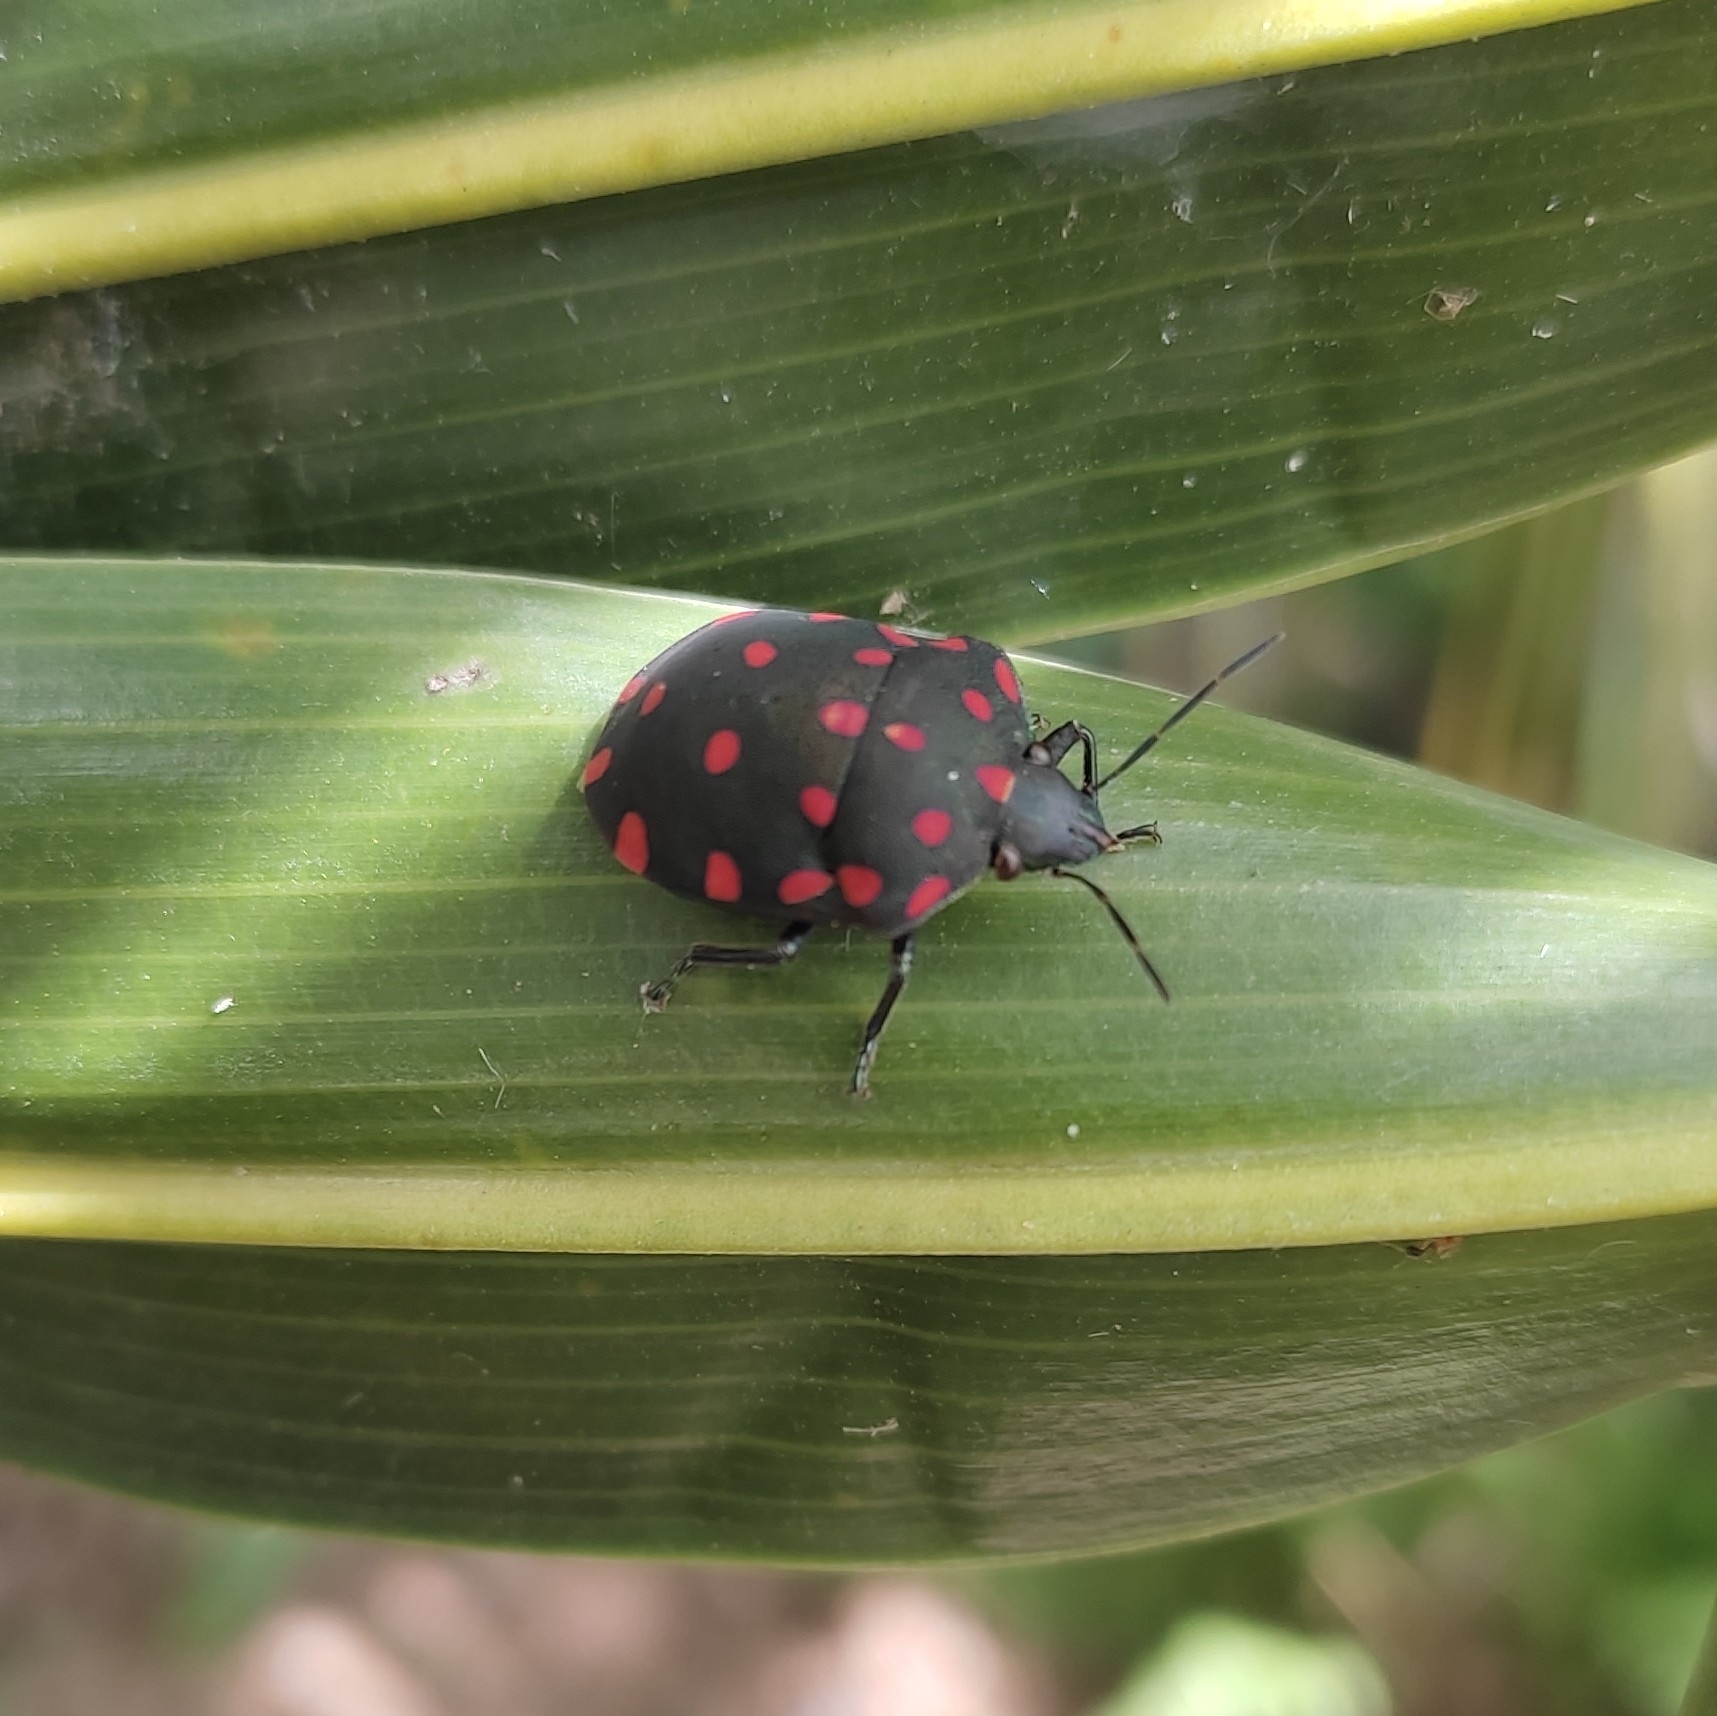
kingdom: Animalia
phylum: Arthropoda
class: Insecta
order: Hemiptera
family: Scutelleridae
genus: Pachycoris
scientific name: Pachycoris torridus
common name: Torrid jewel bug
